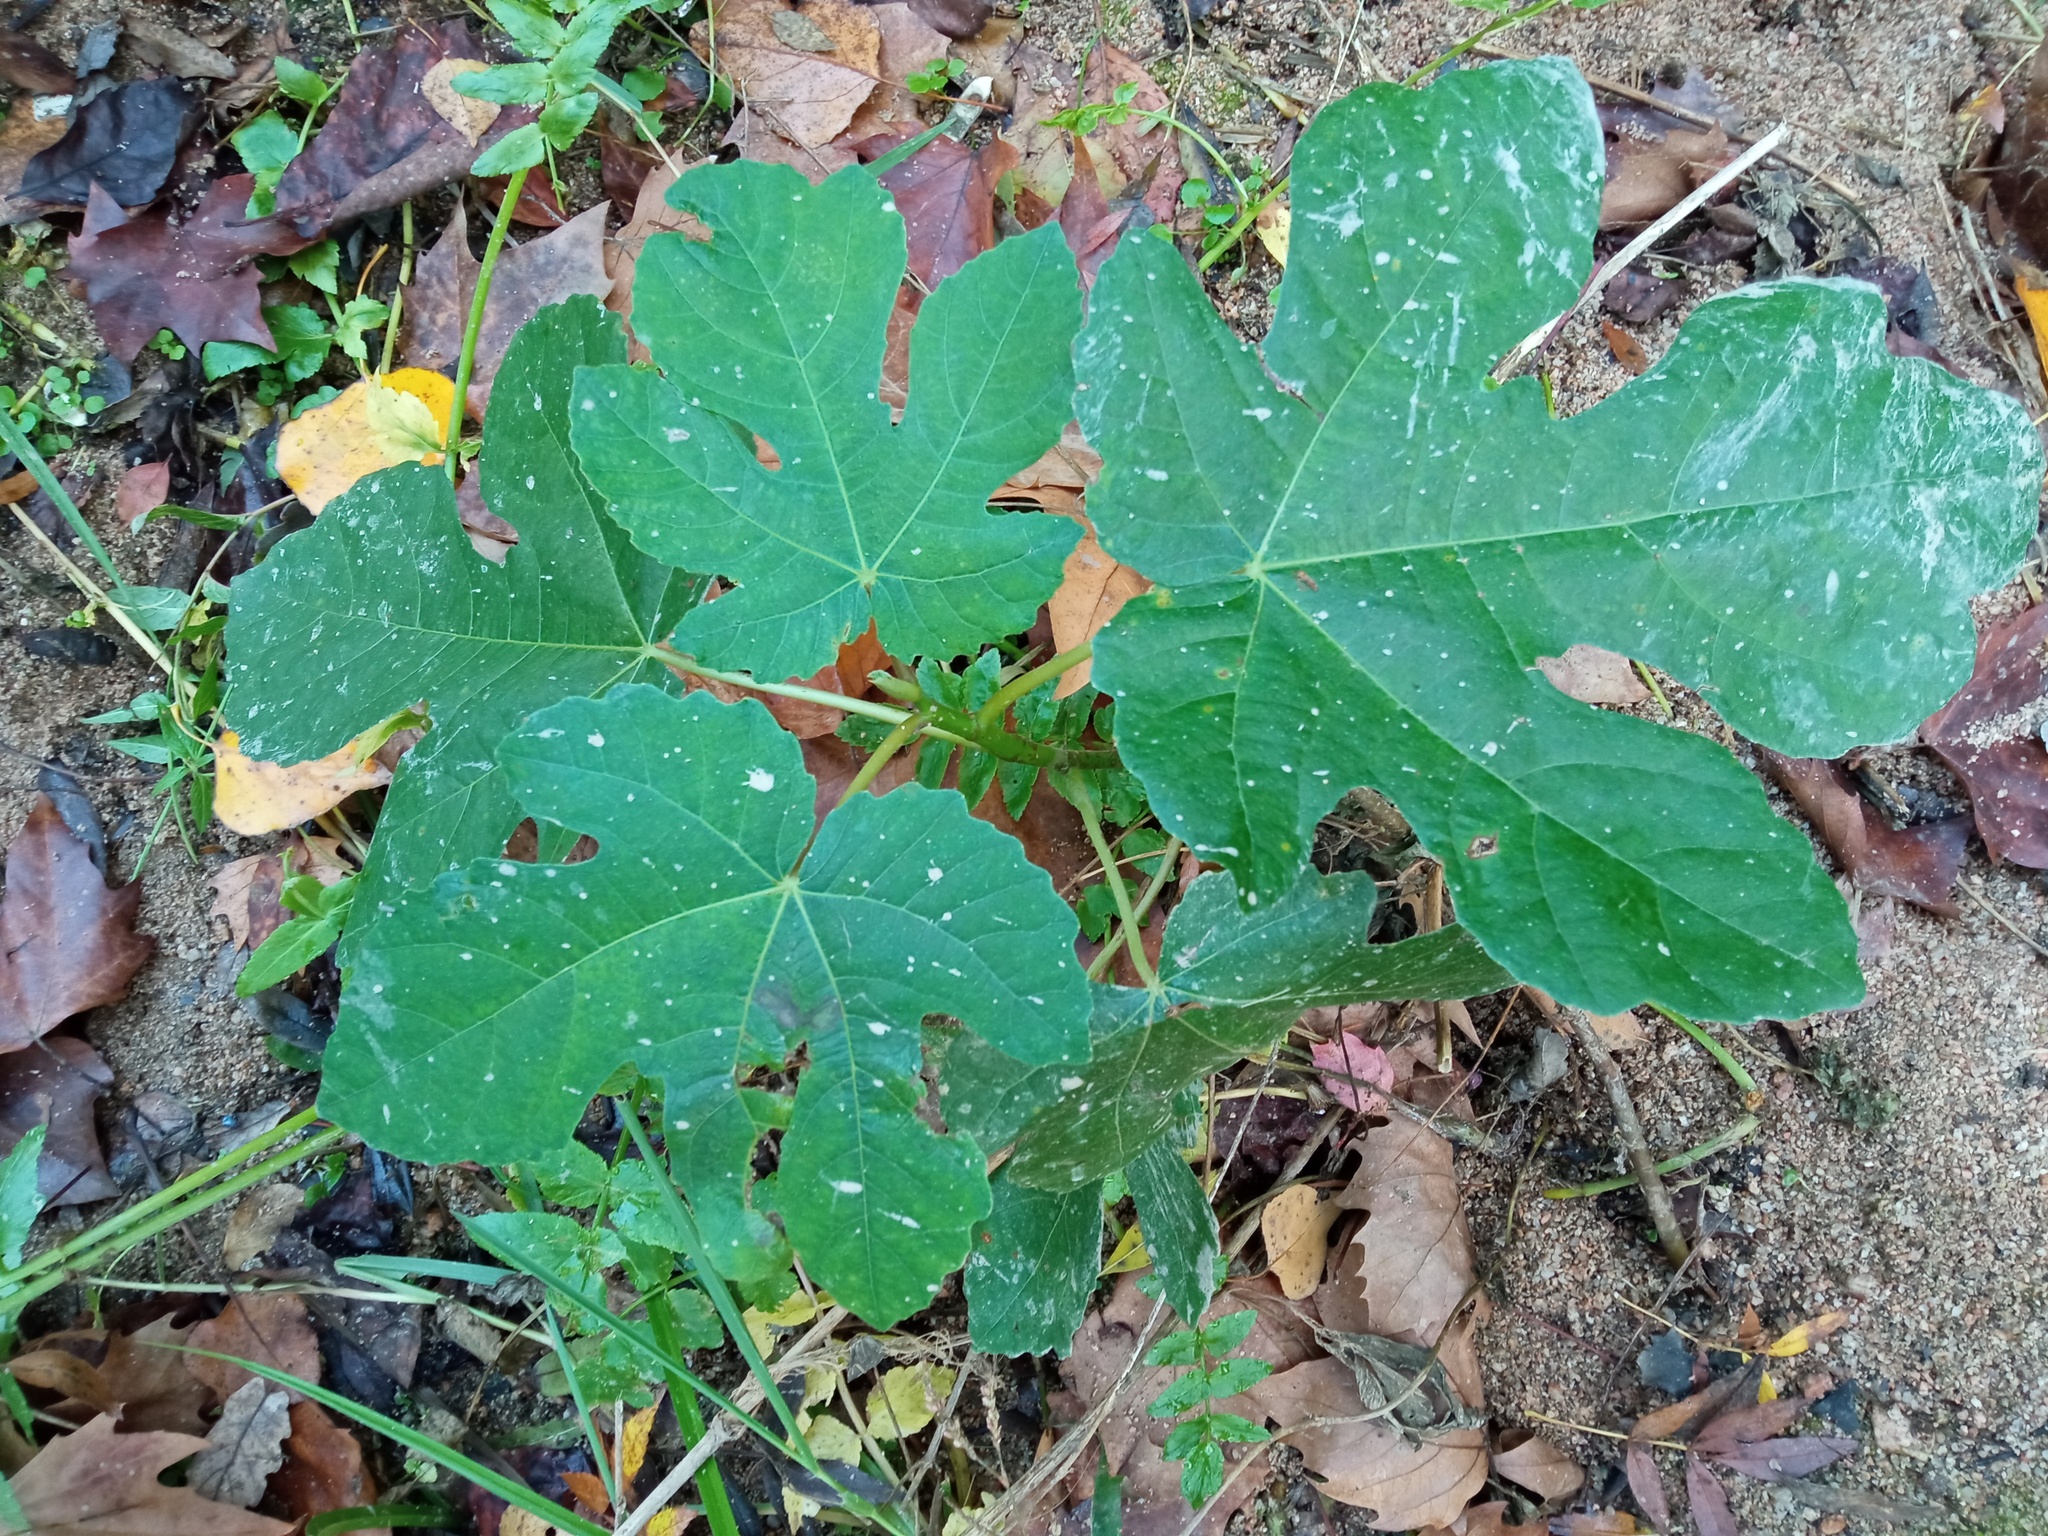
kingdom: Plantae
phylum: Tracheophyta
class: Magnoliopsida
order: Rosales
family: Moraceae
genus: Ficus
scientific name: Ficus carica
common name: Fig
